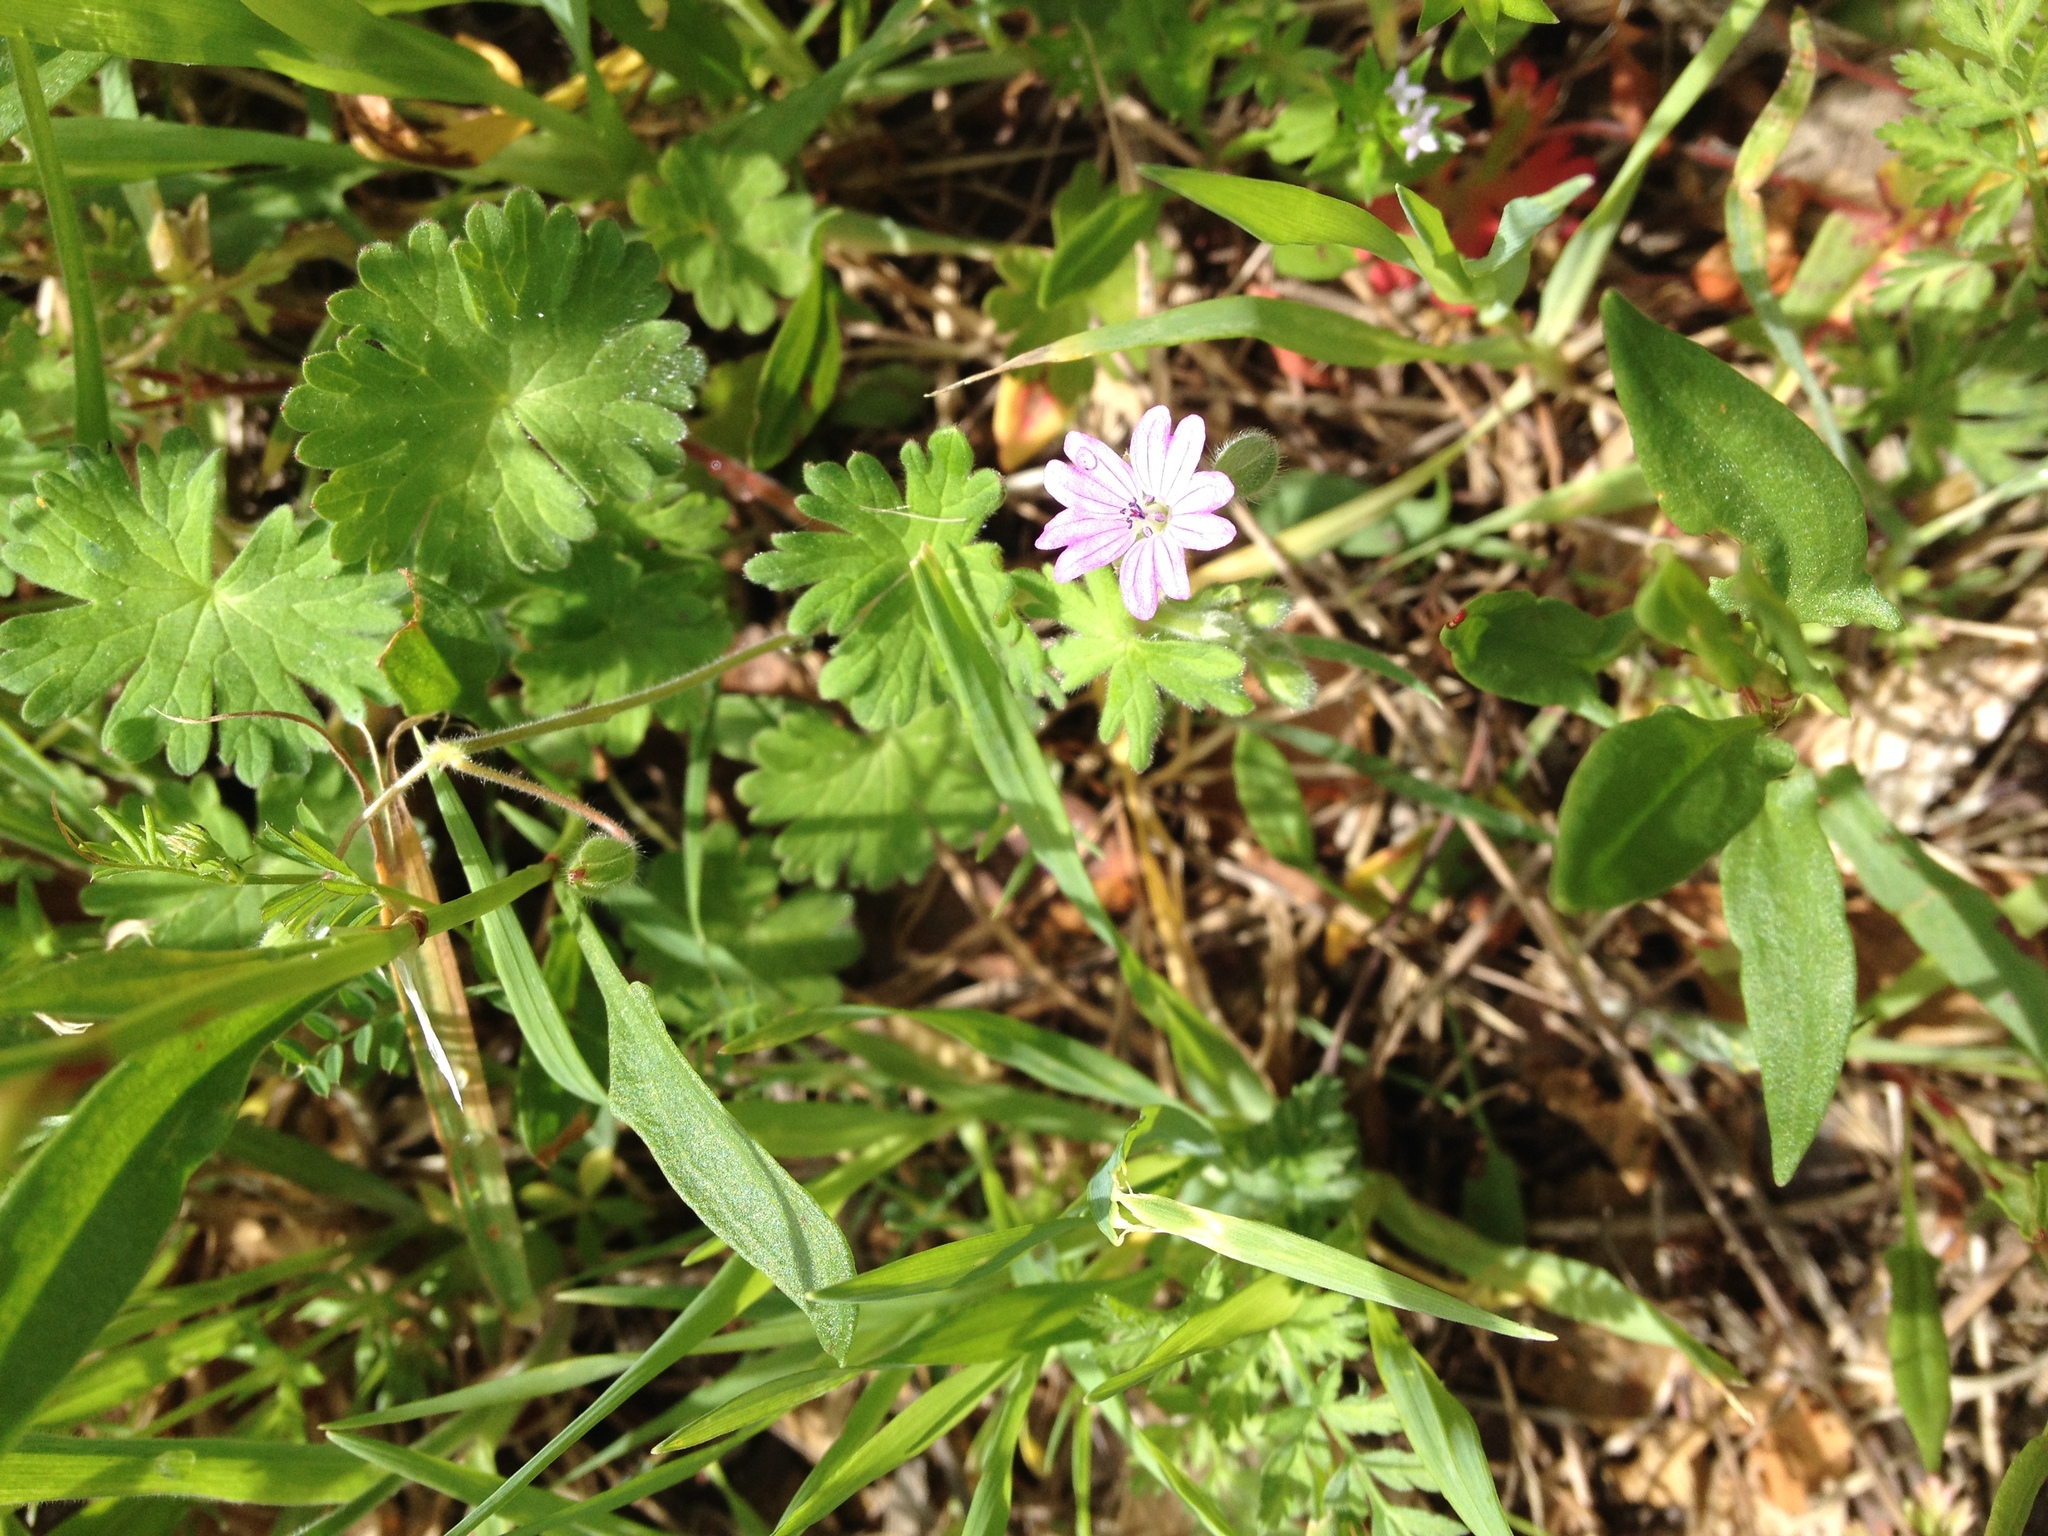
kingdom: Plantae
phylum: Tracheophyta
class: Magnoliopsida
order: Geraniales
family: Geraniaceae
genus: Geranium
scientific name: Geranium molle
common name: Dove's-foot crane's-bill
